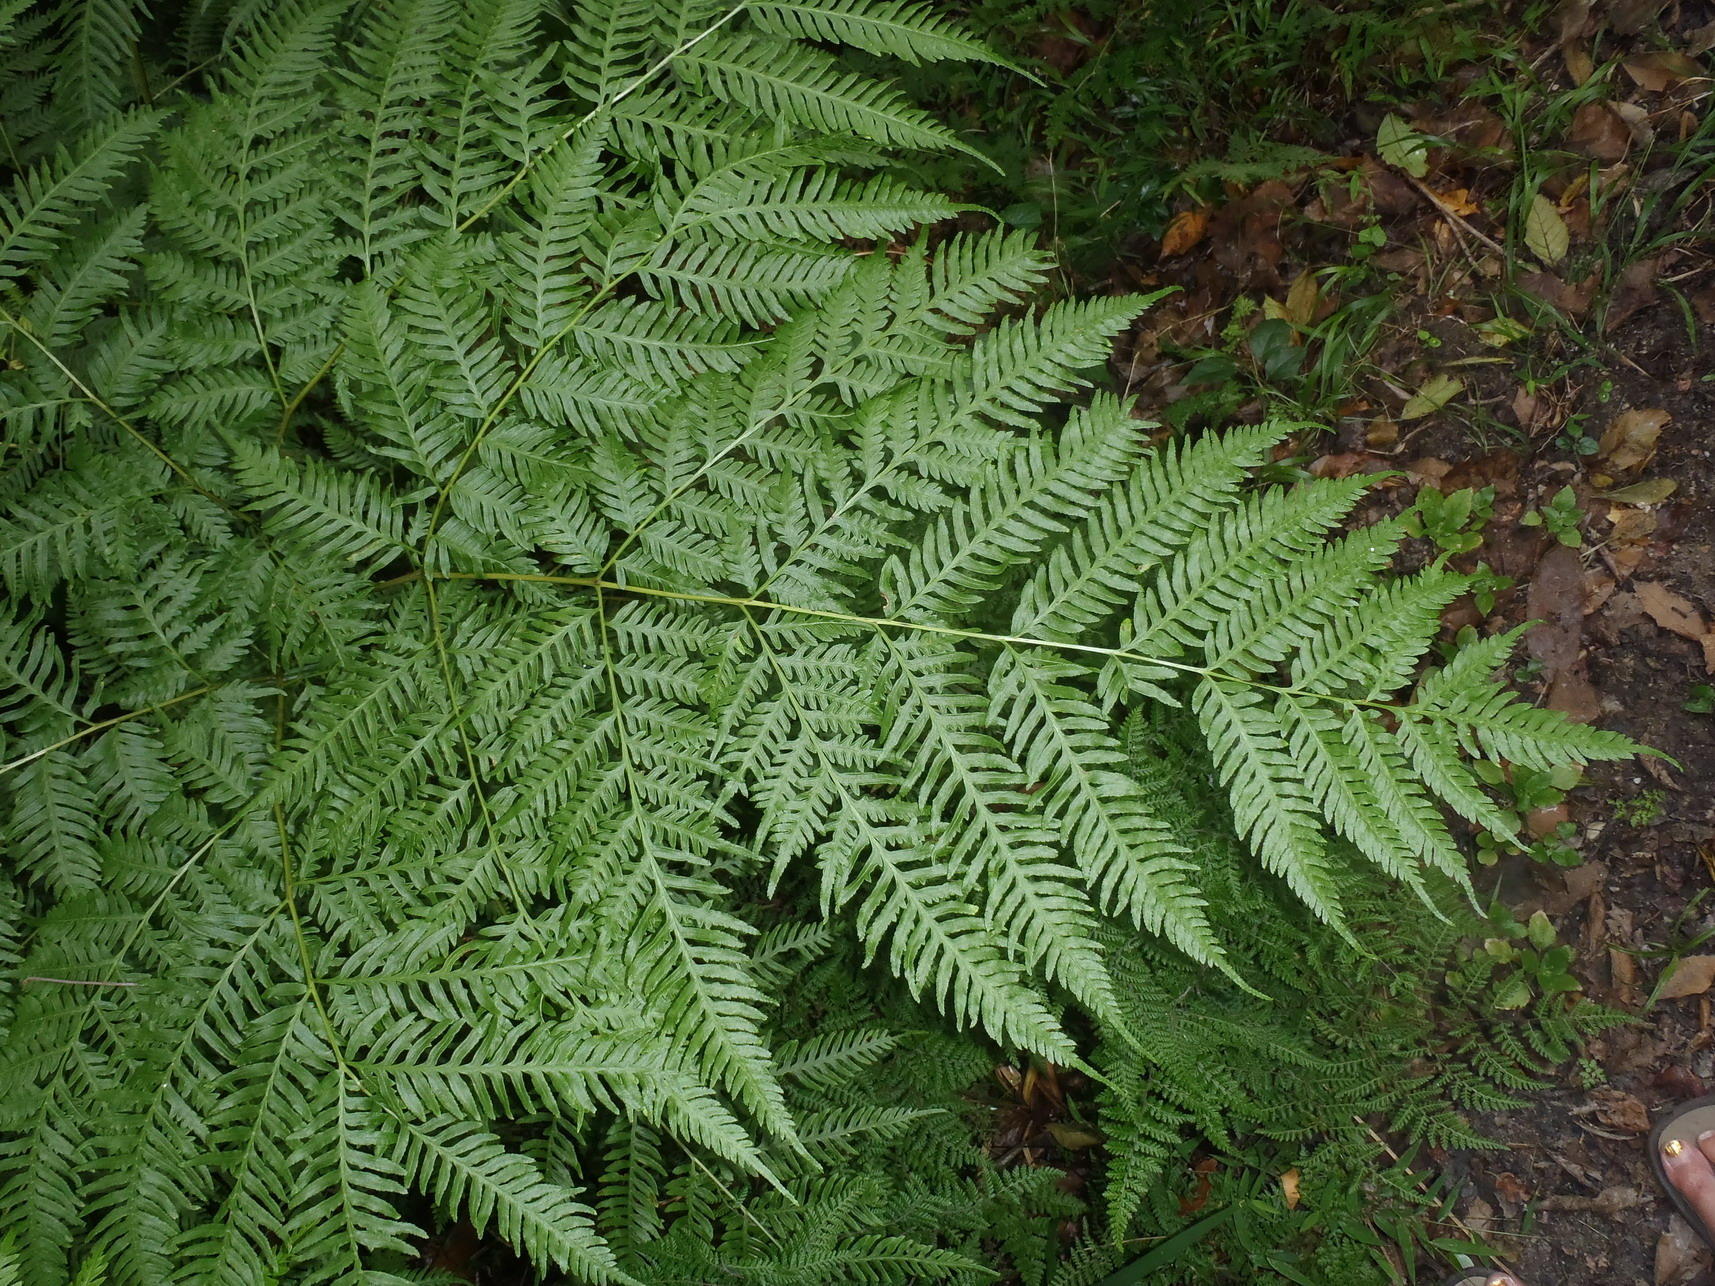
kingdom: Plantae
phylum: Tracheophyta
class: Polypodiopsida
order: Polypodiales
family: Pteridaceae
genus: Pteris
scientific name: Pteris buchananii
